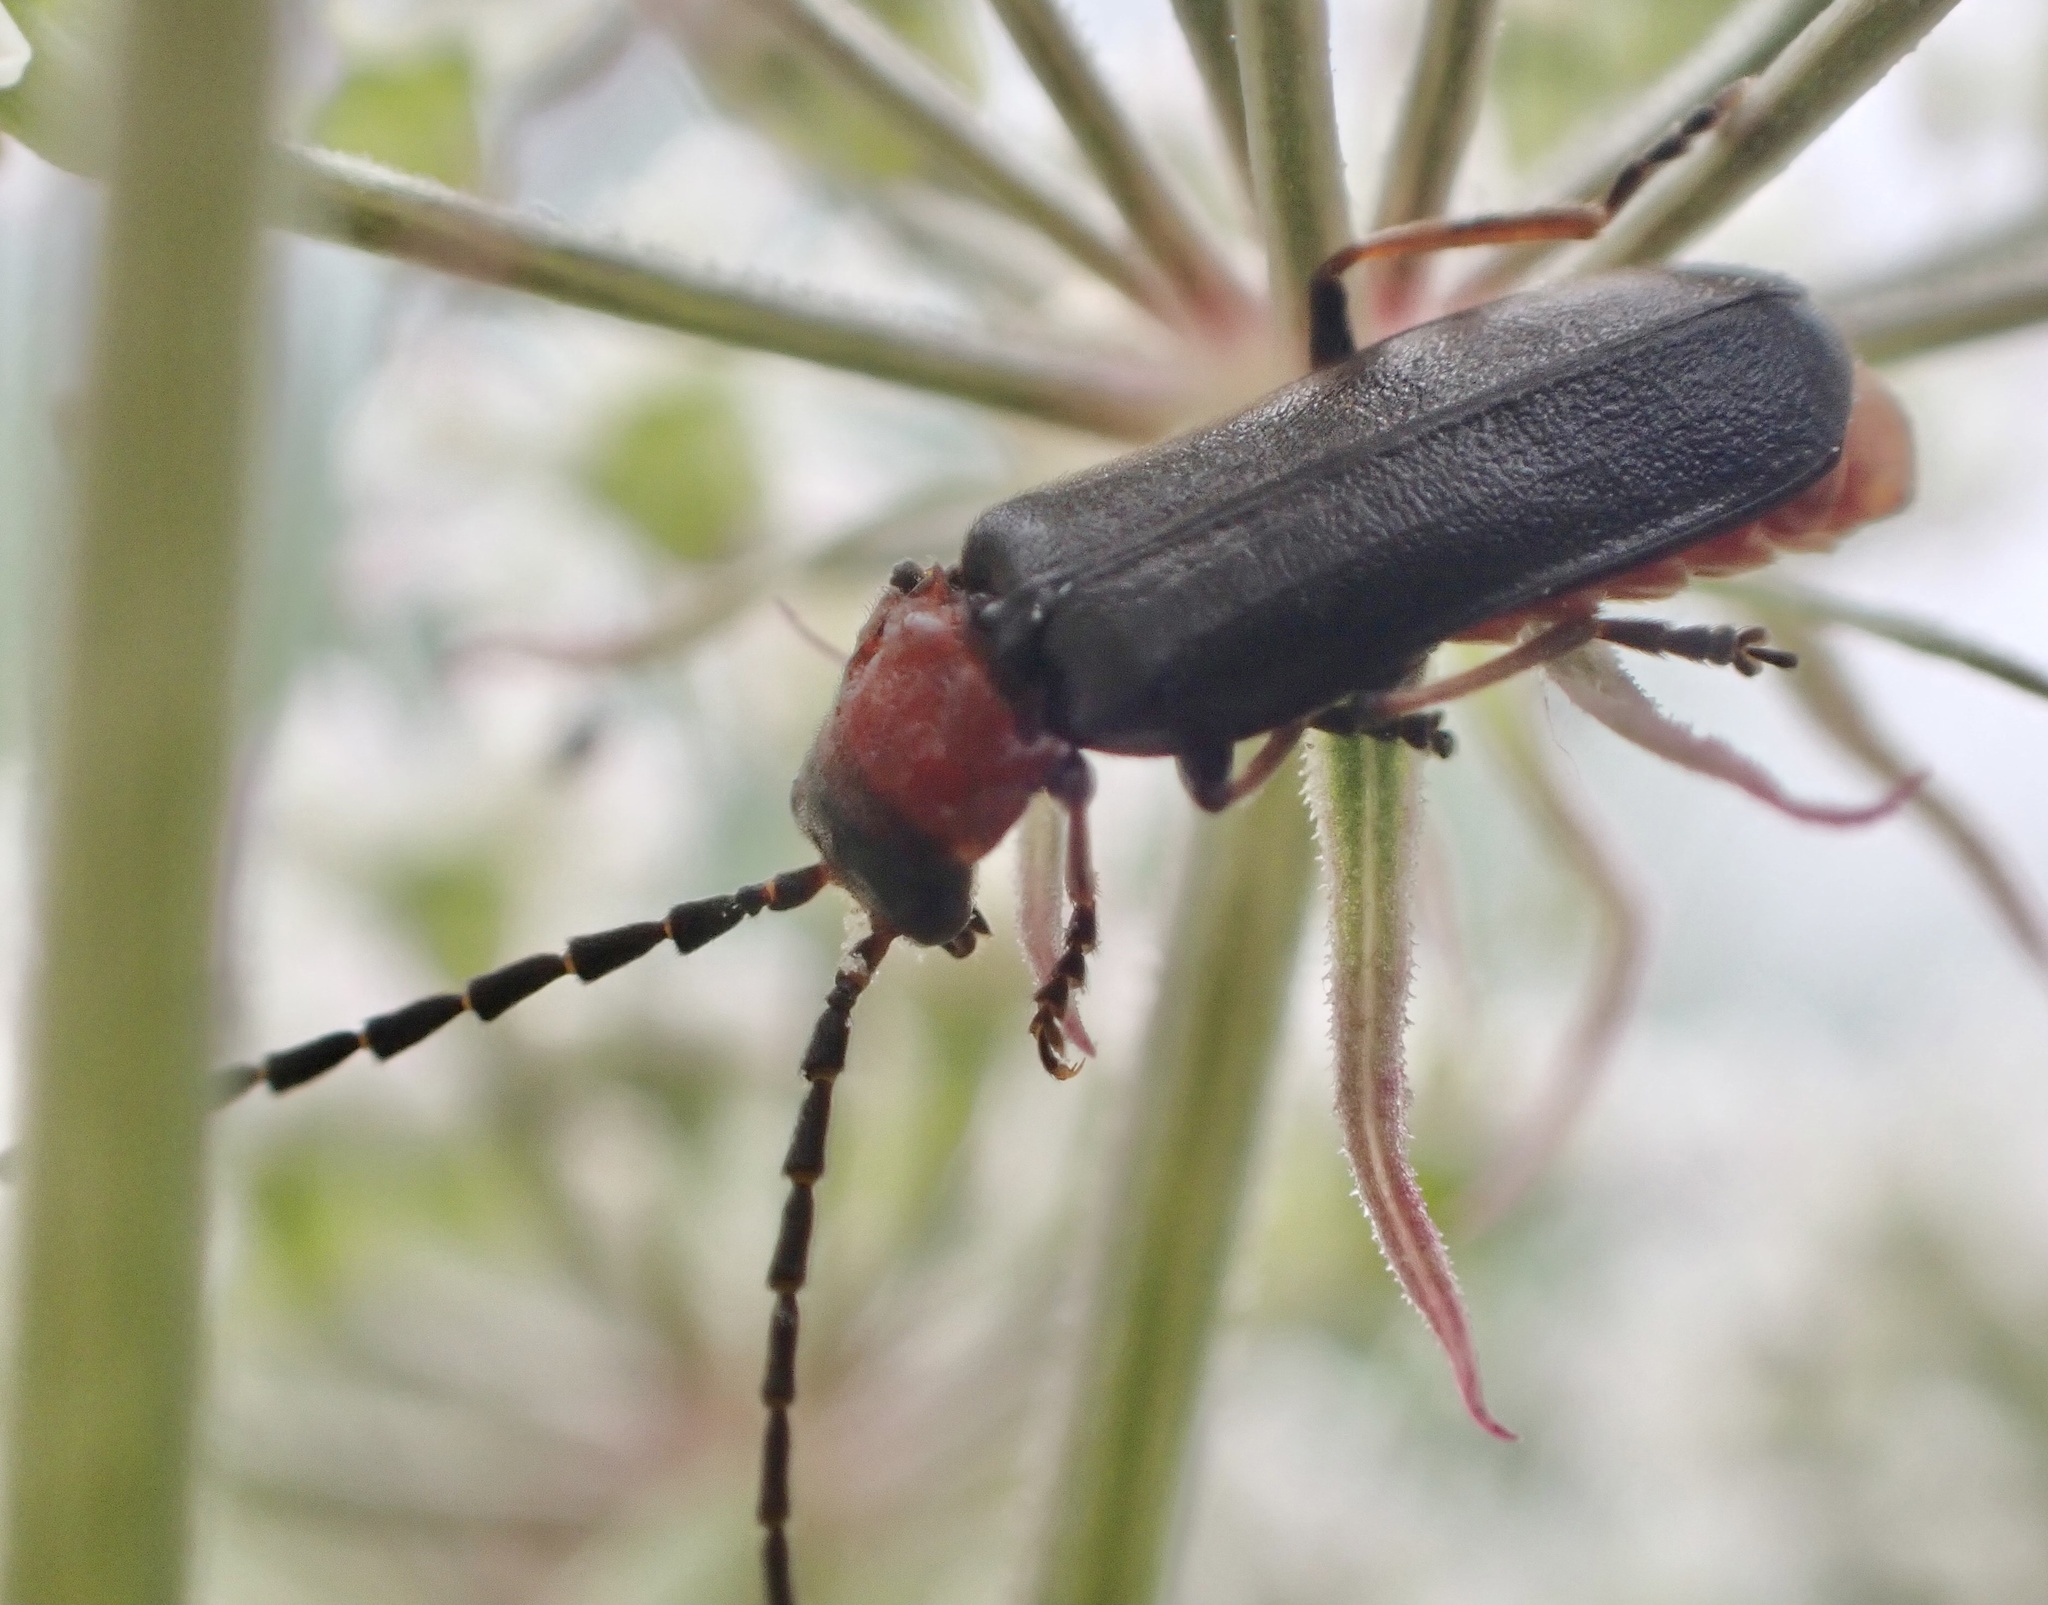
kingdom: Animalia
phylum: Arthropoda
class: Insecta
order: Coleoptera
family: Cantharidae
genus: Crudosilis
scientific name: Crudosilis ruficollis
